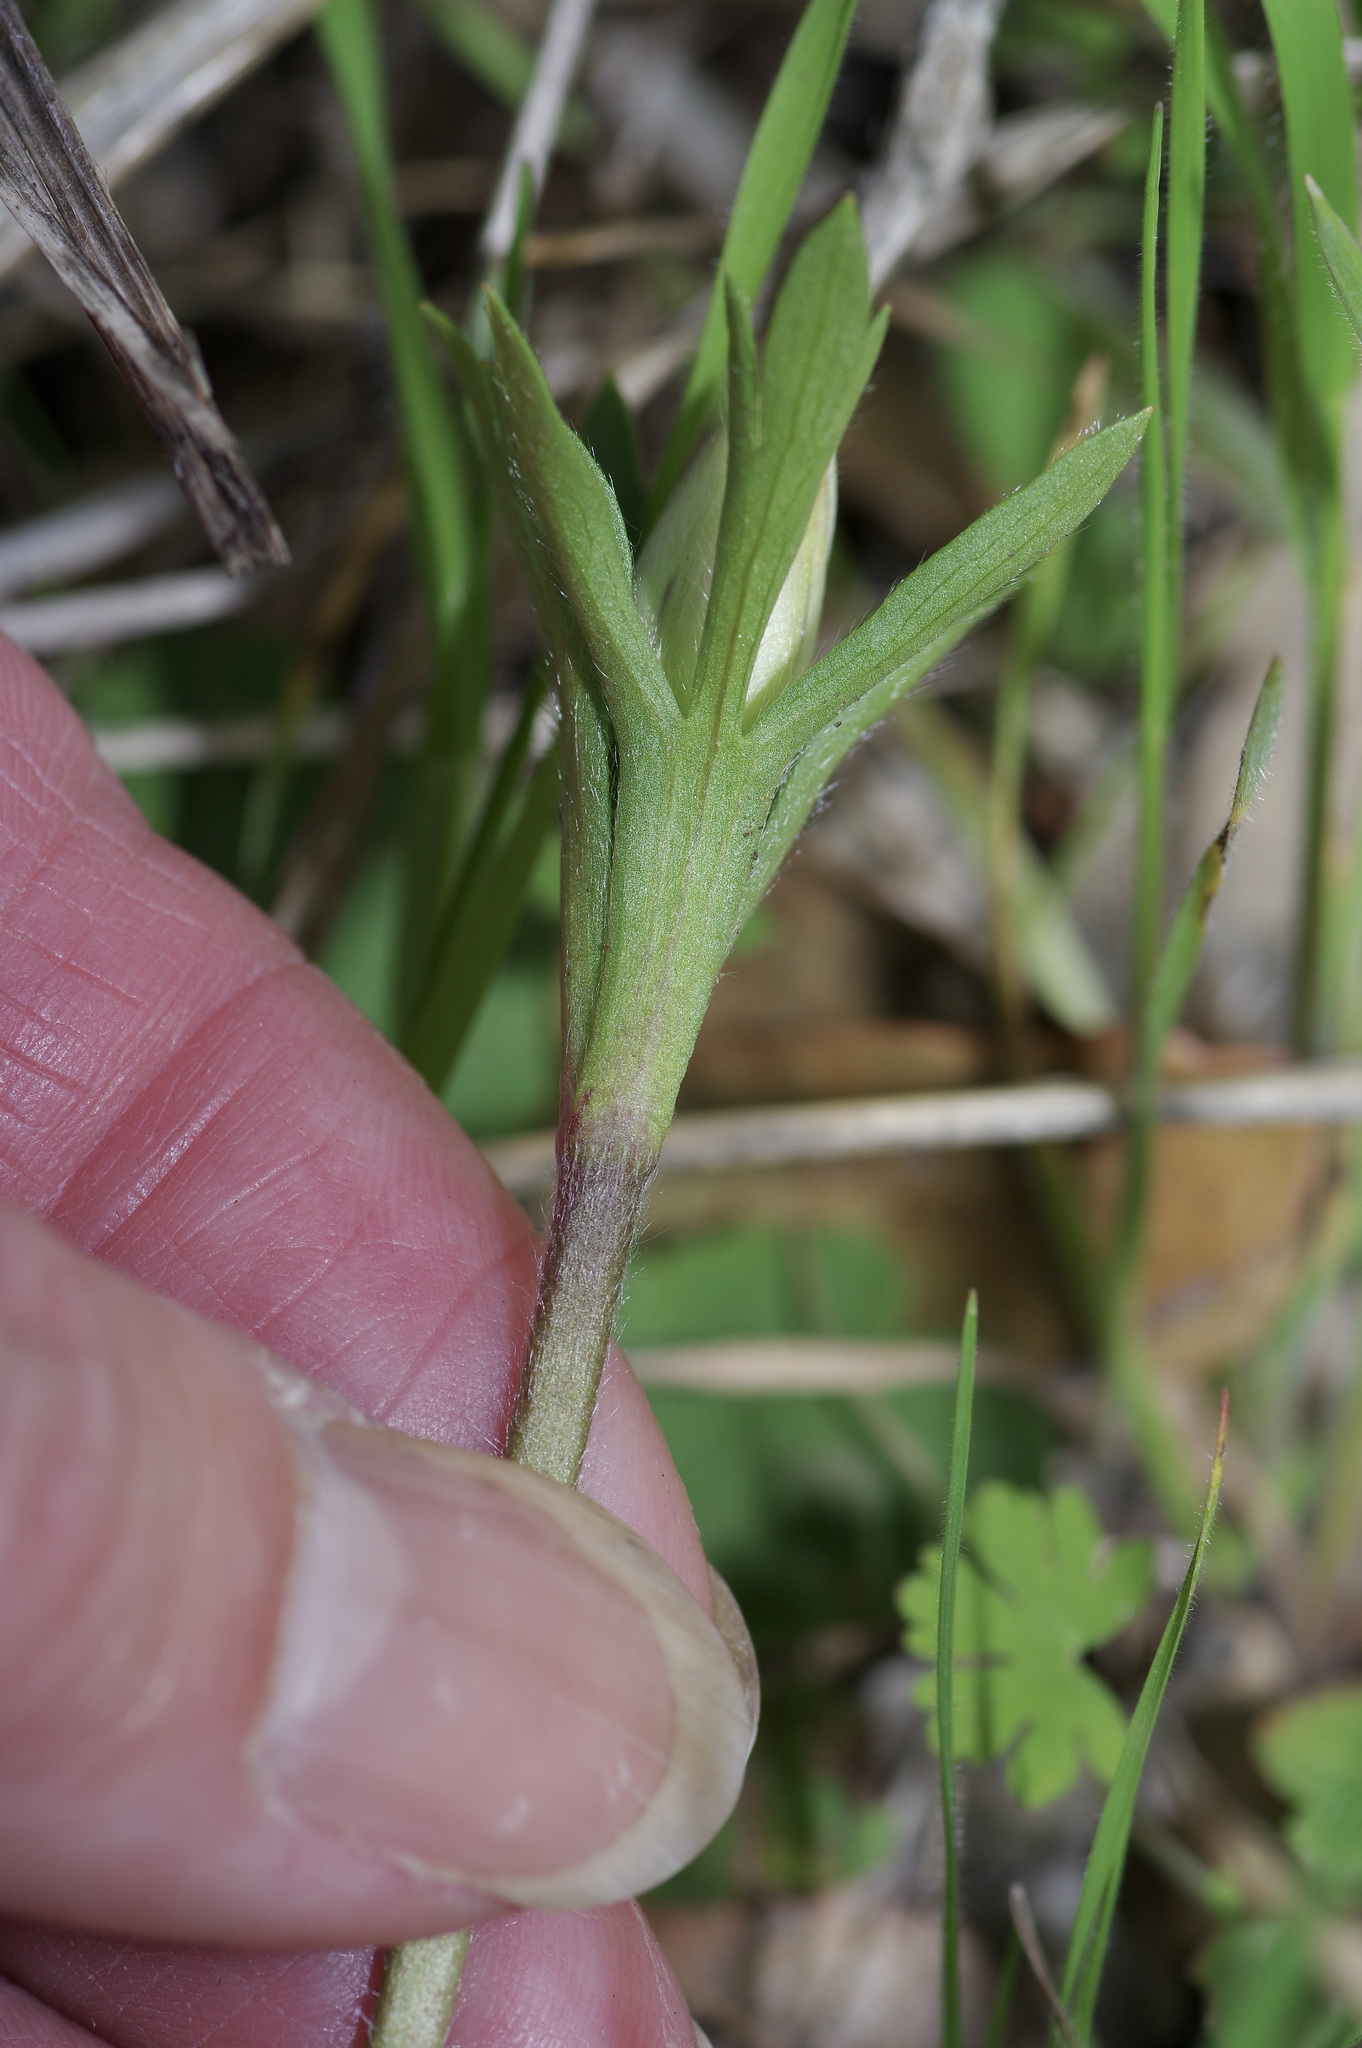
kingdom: Plantae
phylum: Tracheophyta
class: Magnoliopsida
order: Ranunculales
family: Ranunculaceae
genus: Anemone
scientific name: Anemone berlandieri
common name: Ten-petal anemone
